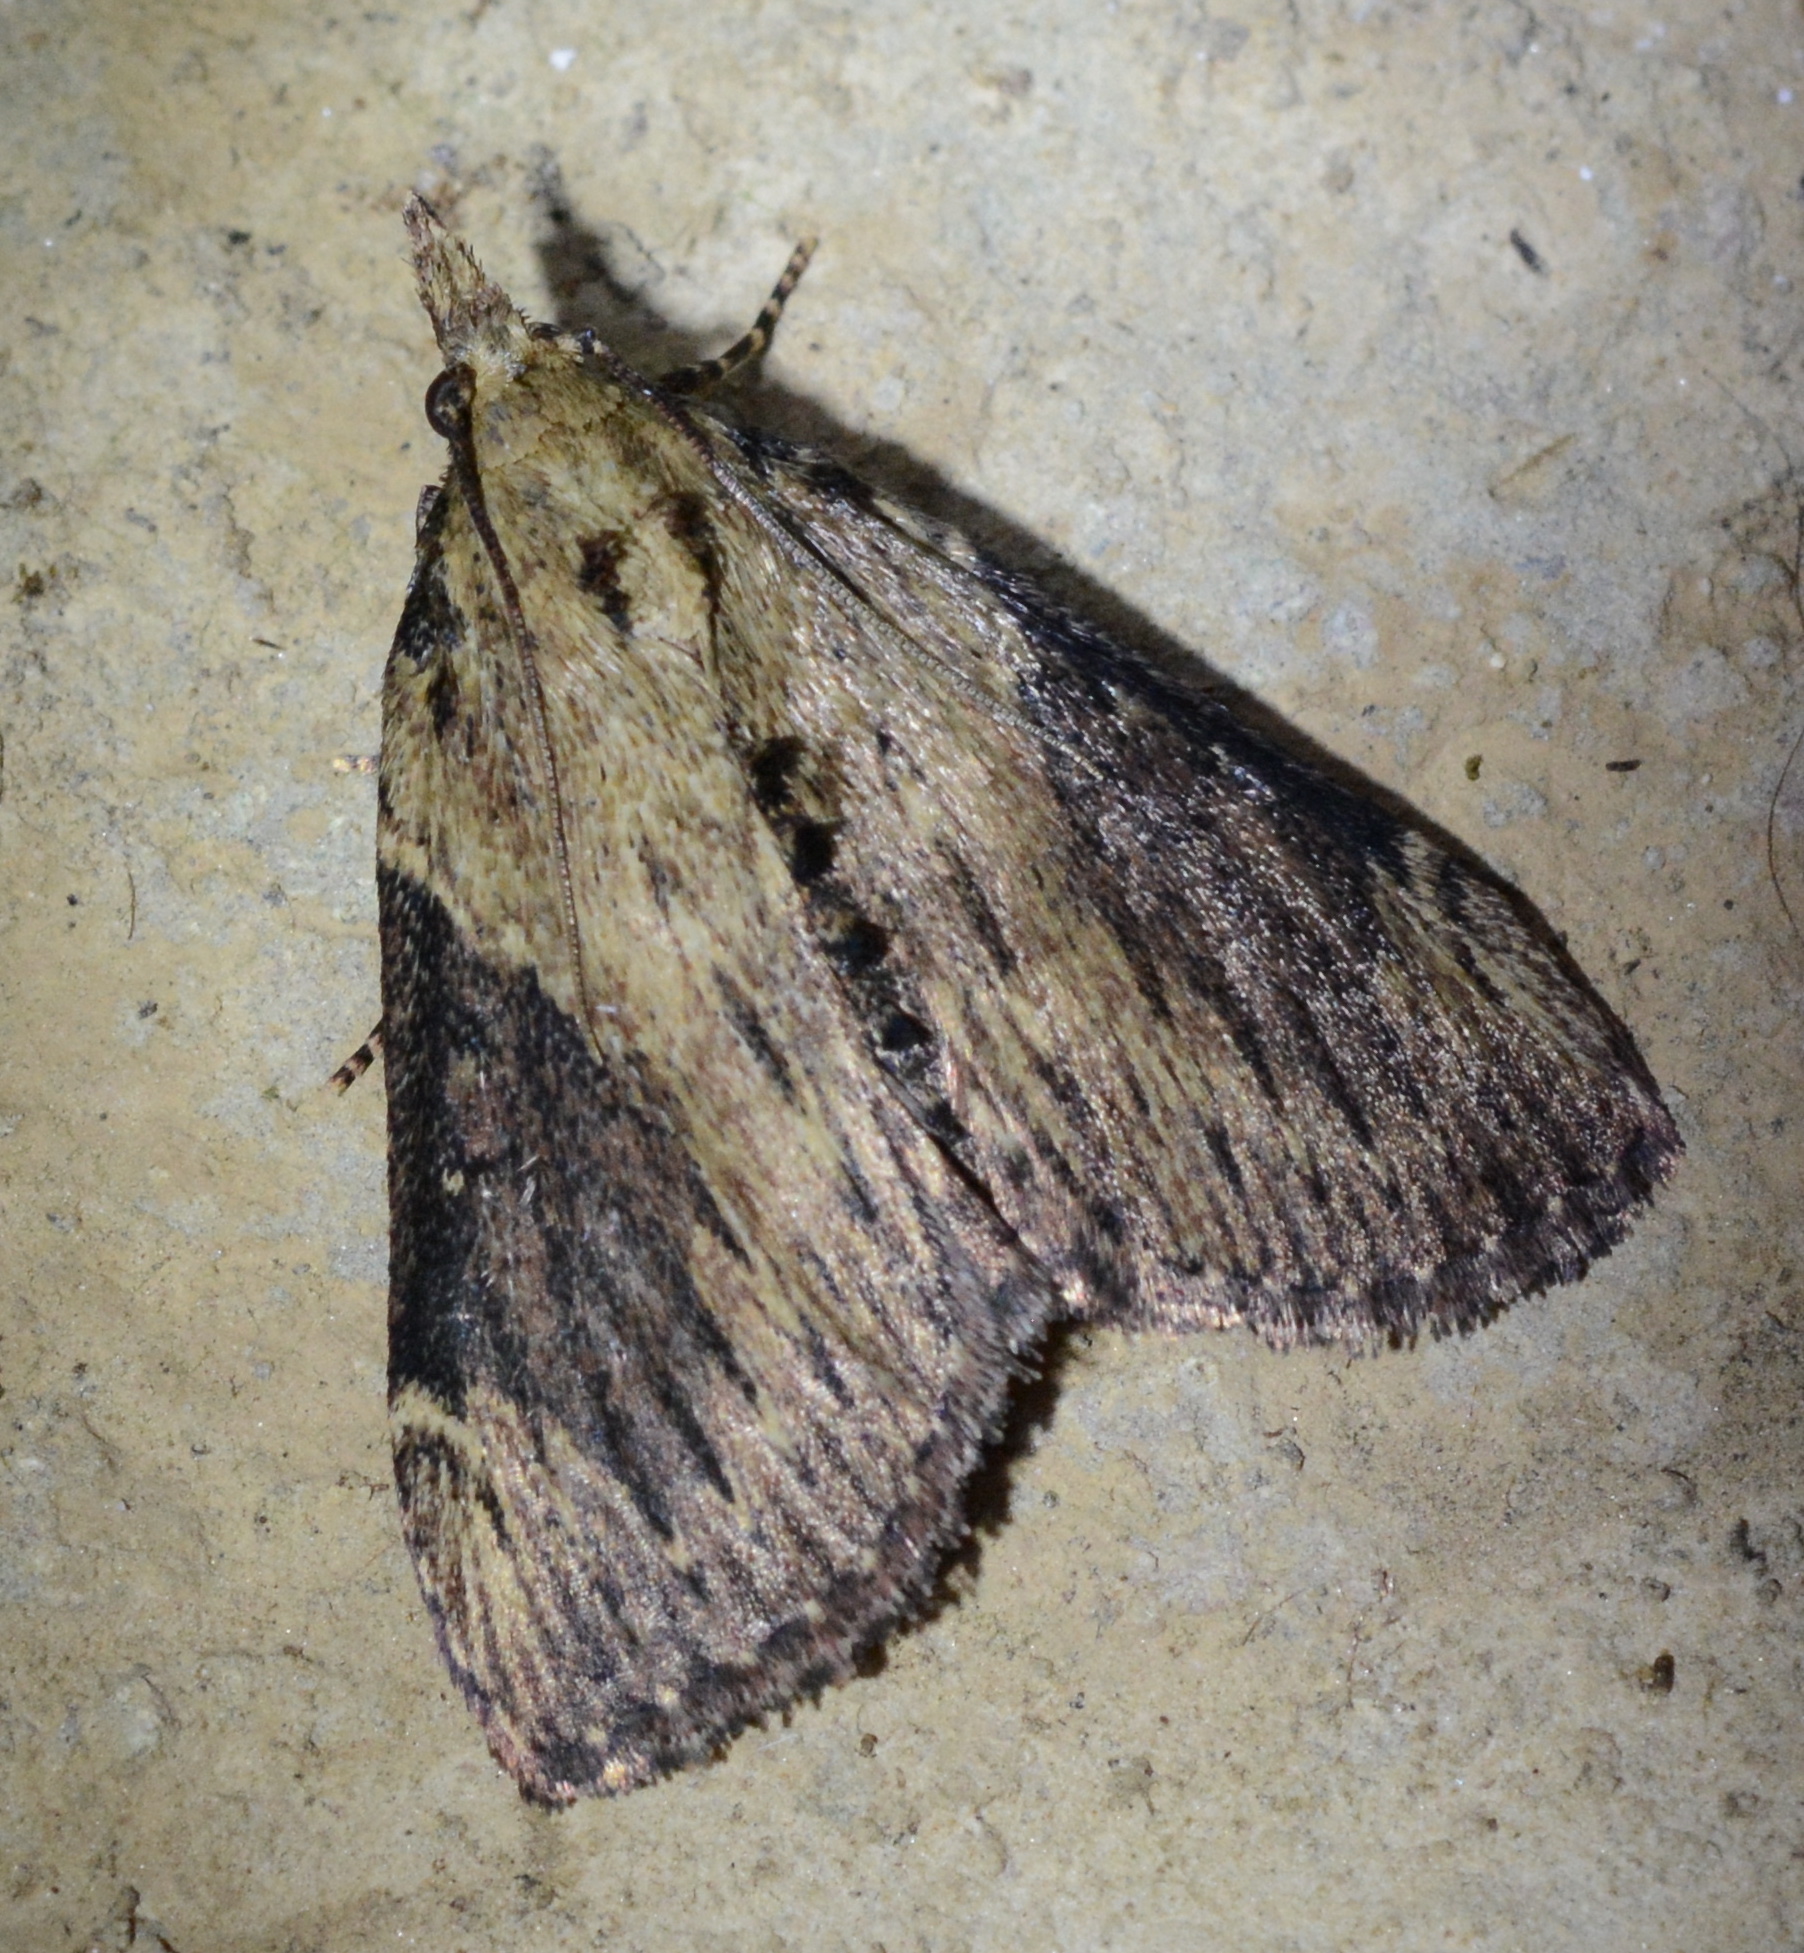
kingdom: Animalia
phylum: Arthropoda
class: Insecta
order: Lepidoptera
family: Pyralidae
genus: Omphalocera
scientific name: Omphalocera cariosa
